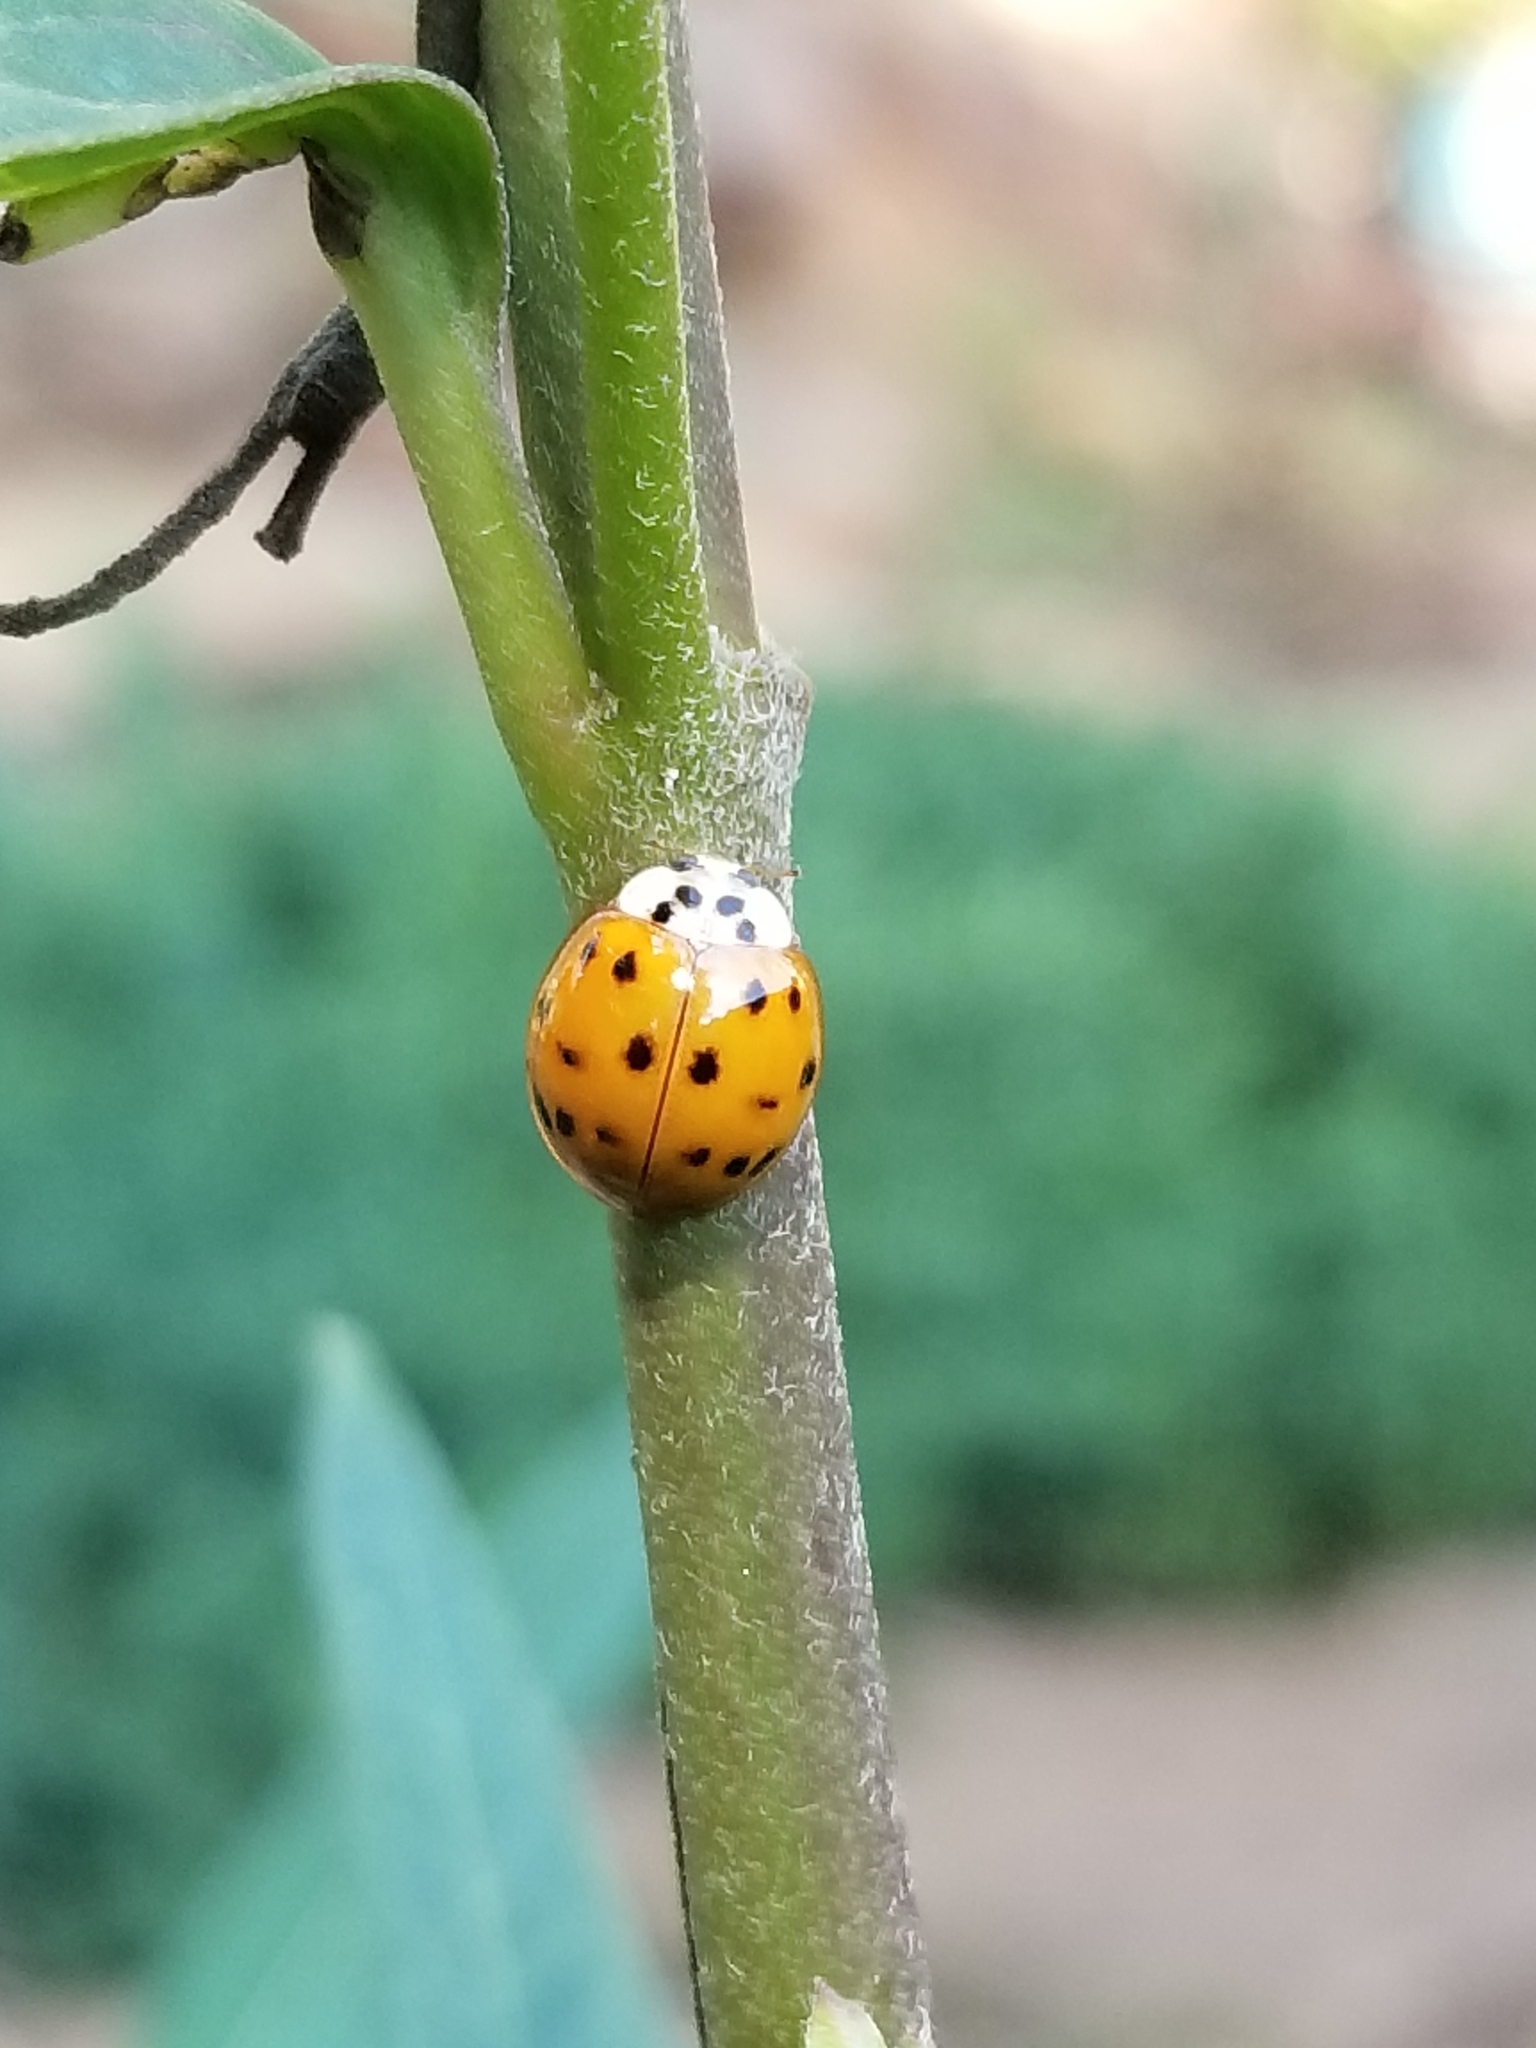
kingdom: Animalia
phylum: Arthropoda
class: Insecta
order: Coleoptera
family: Coccinellidae
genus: Harmonia
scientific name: Harmonia axyridis
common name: Harlequin ladybird
